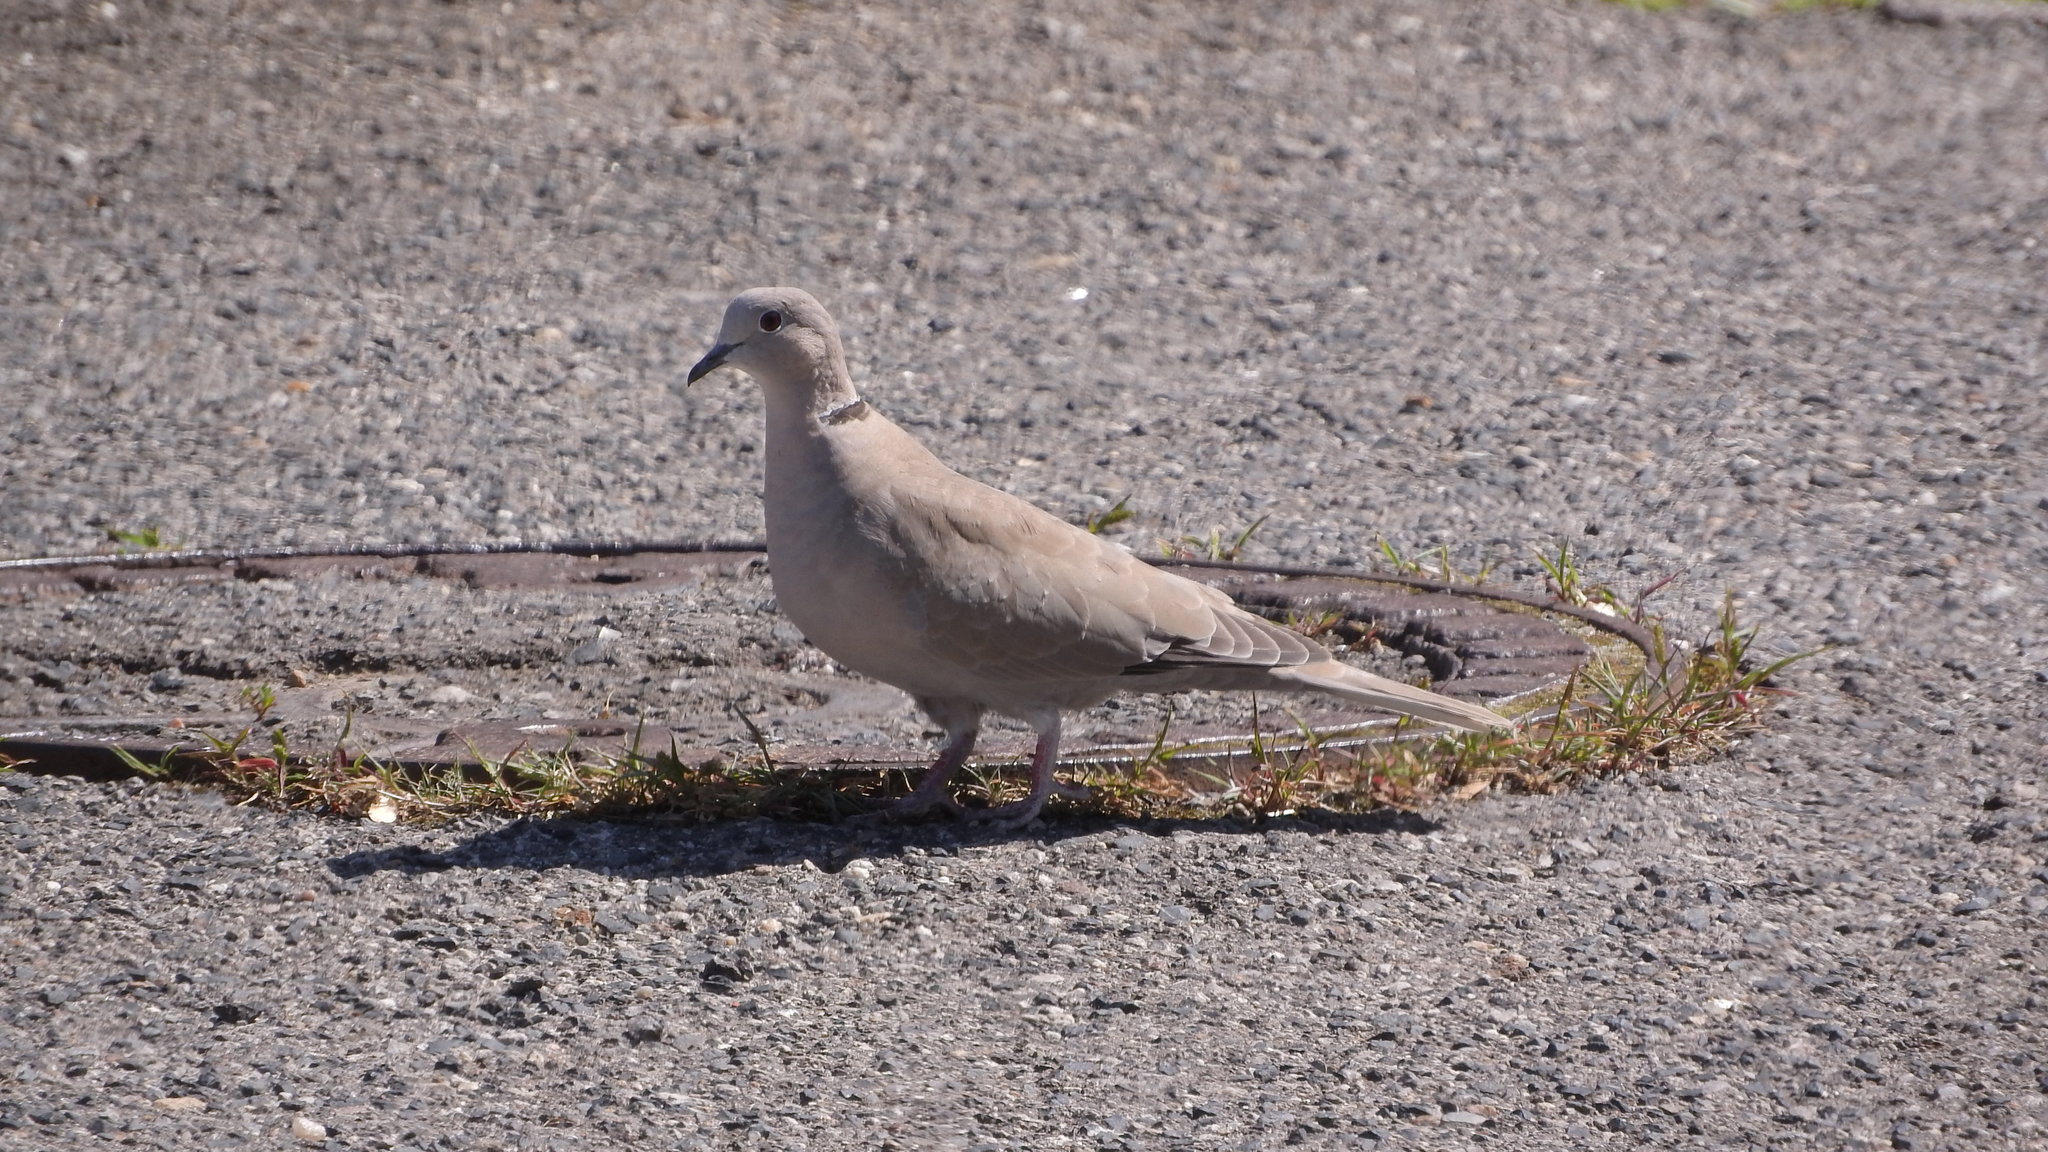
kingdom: Animalia
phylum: Chordata
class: Aves
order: Columbiformes
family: Columbidae
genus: Streptopelia
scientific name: Streptopelia decaocto
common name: Eurasian collared dove
